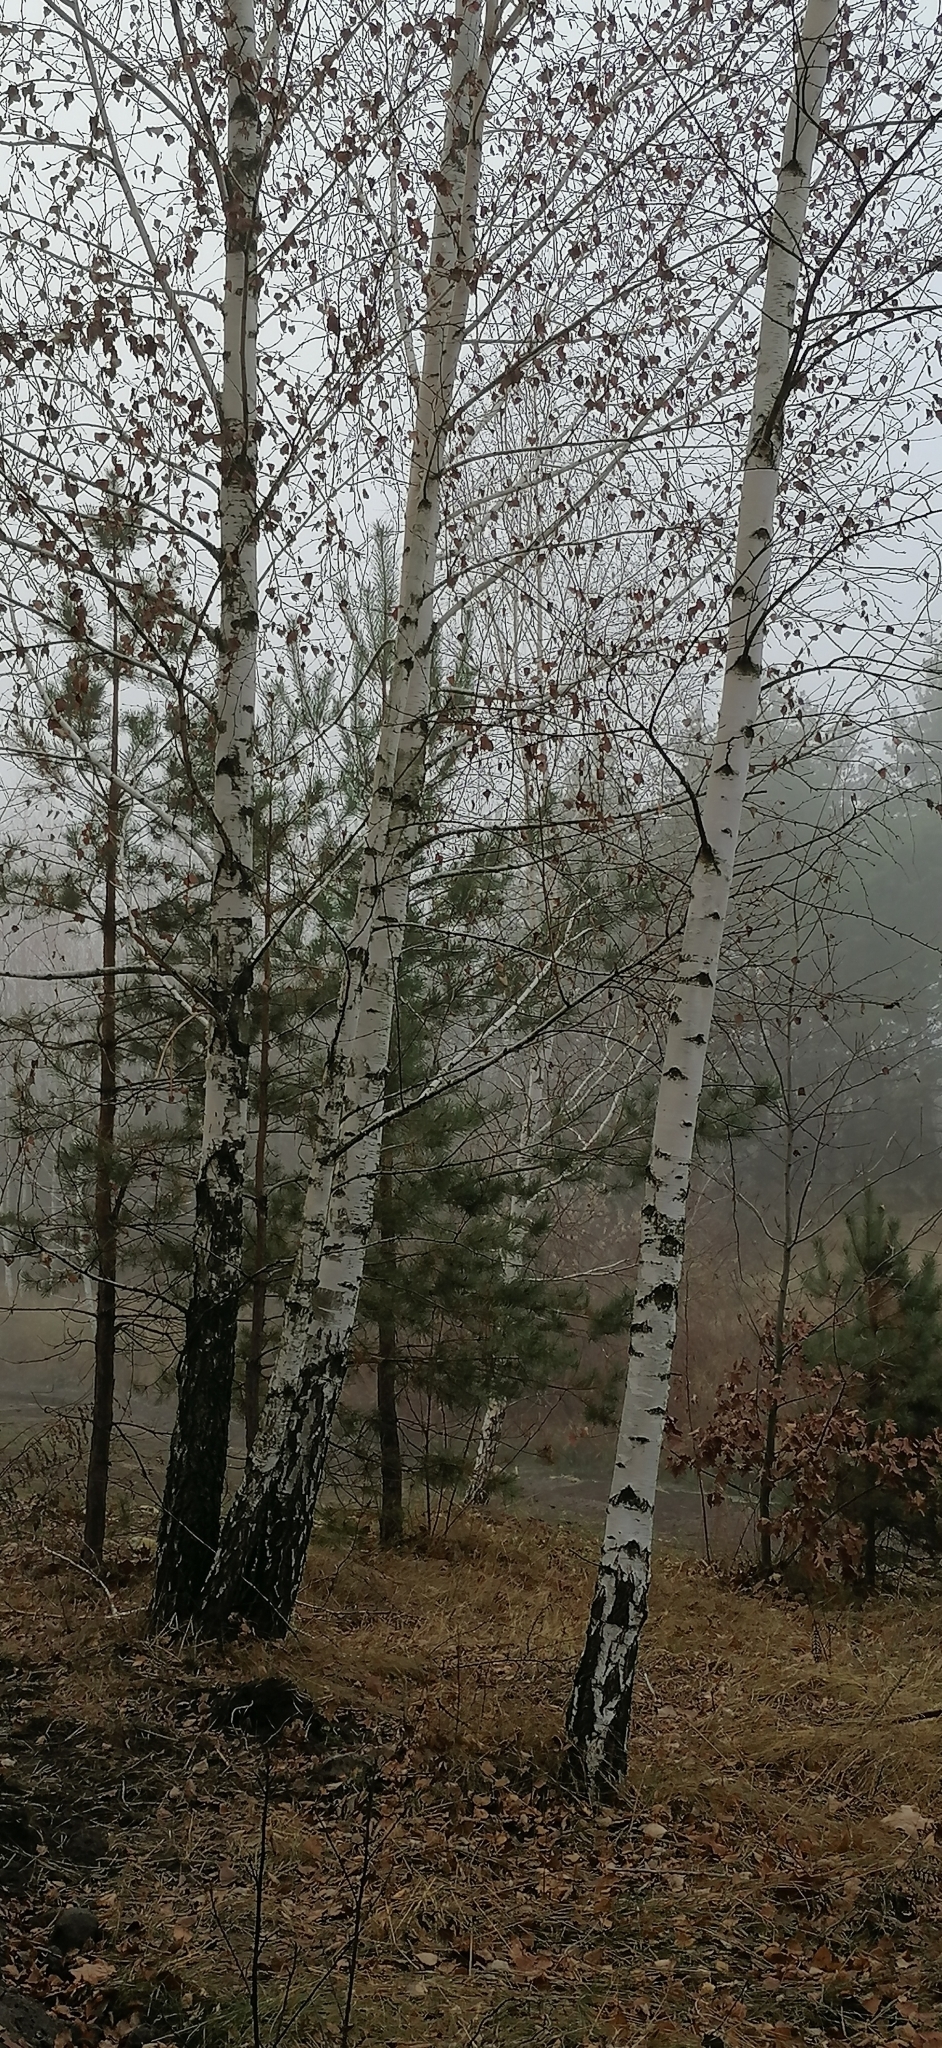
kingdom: Plantae
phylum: Tracheophyta
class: Magnoliopsida
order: Fagales
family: Betulaceae
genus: Betula
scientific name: Betula pendula
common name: Silver birch
